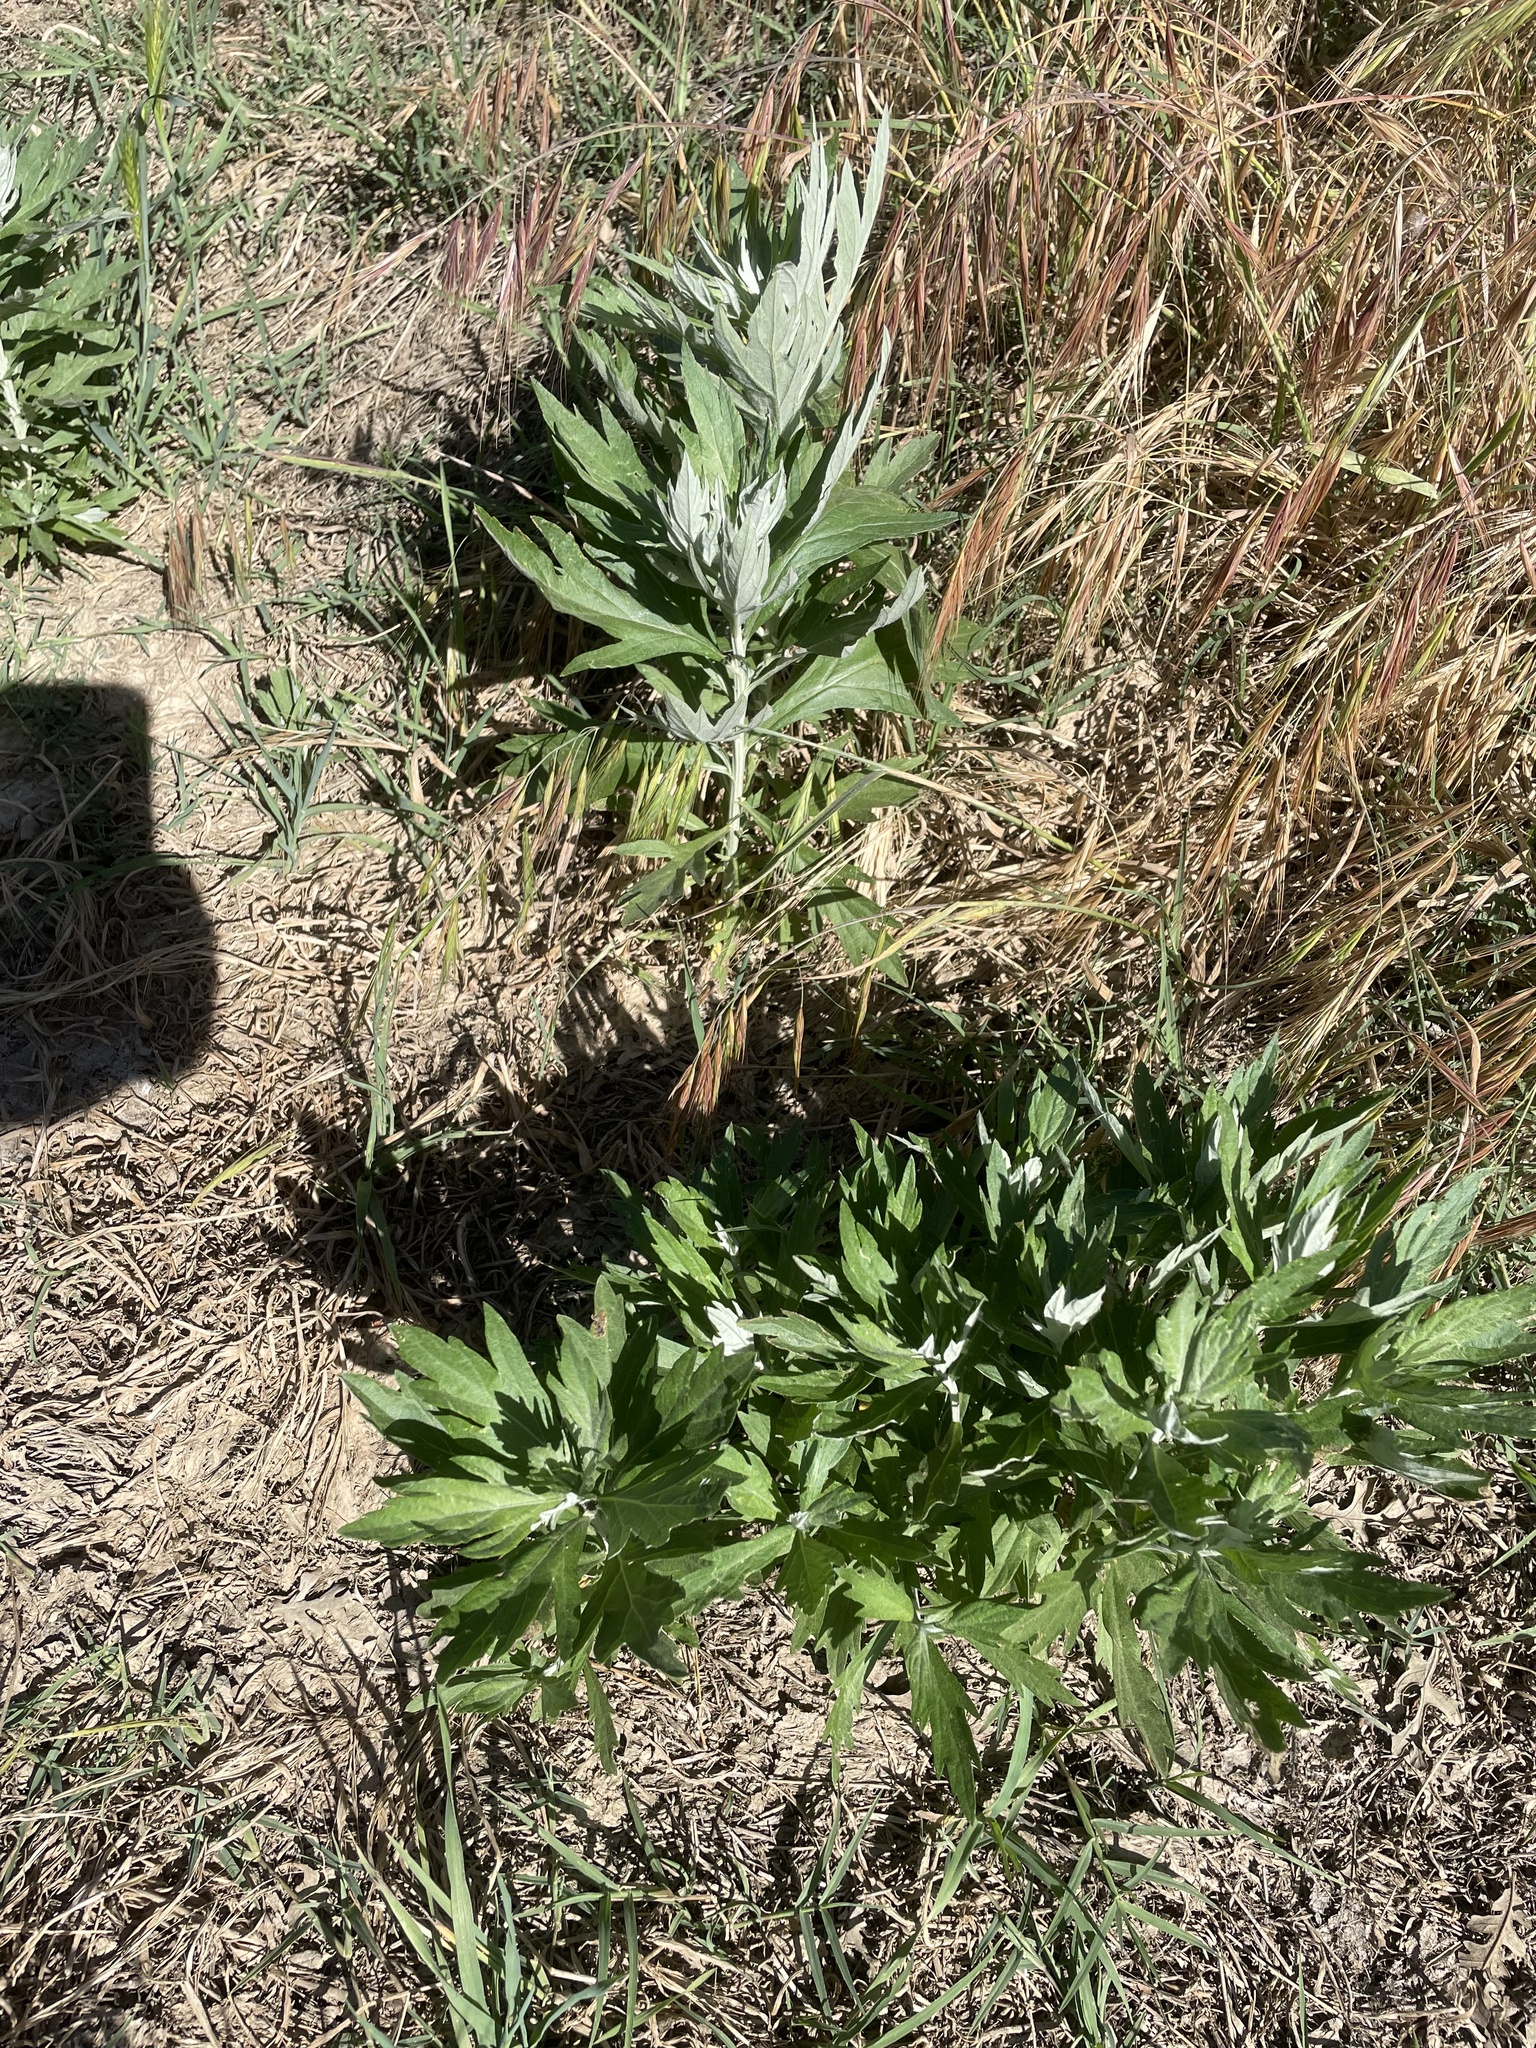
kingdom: Plantae
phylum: Tracheophyta
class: Magnoliopsida
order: Asterales
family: Asteraceae
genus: Artemisia
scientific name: Artemisia douglasiana
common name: Northwest mugwort
